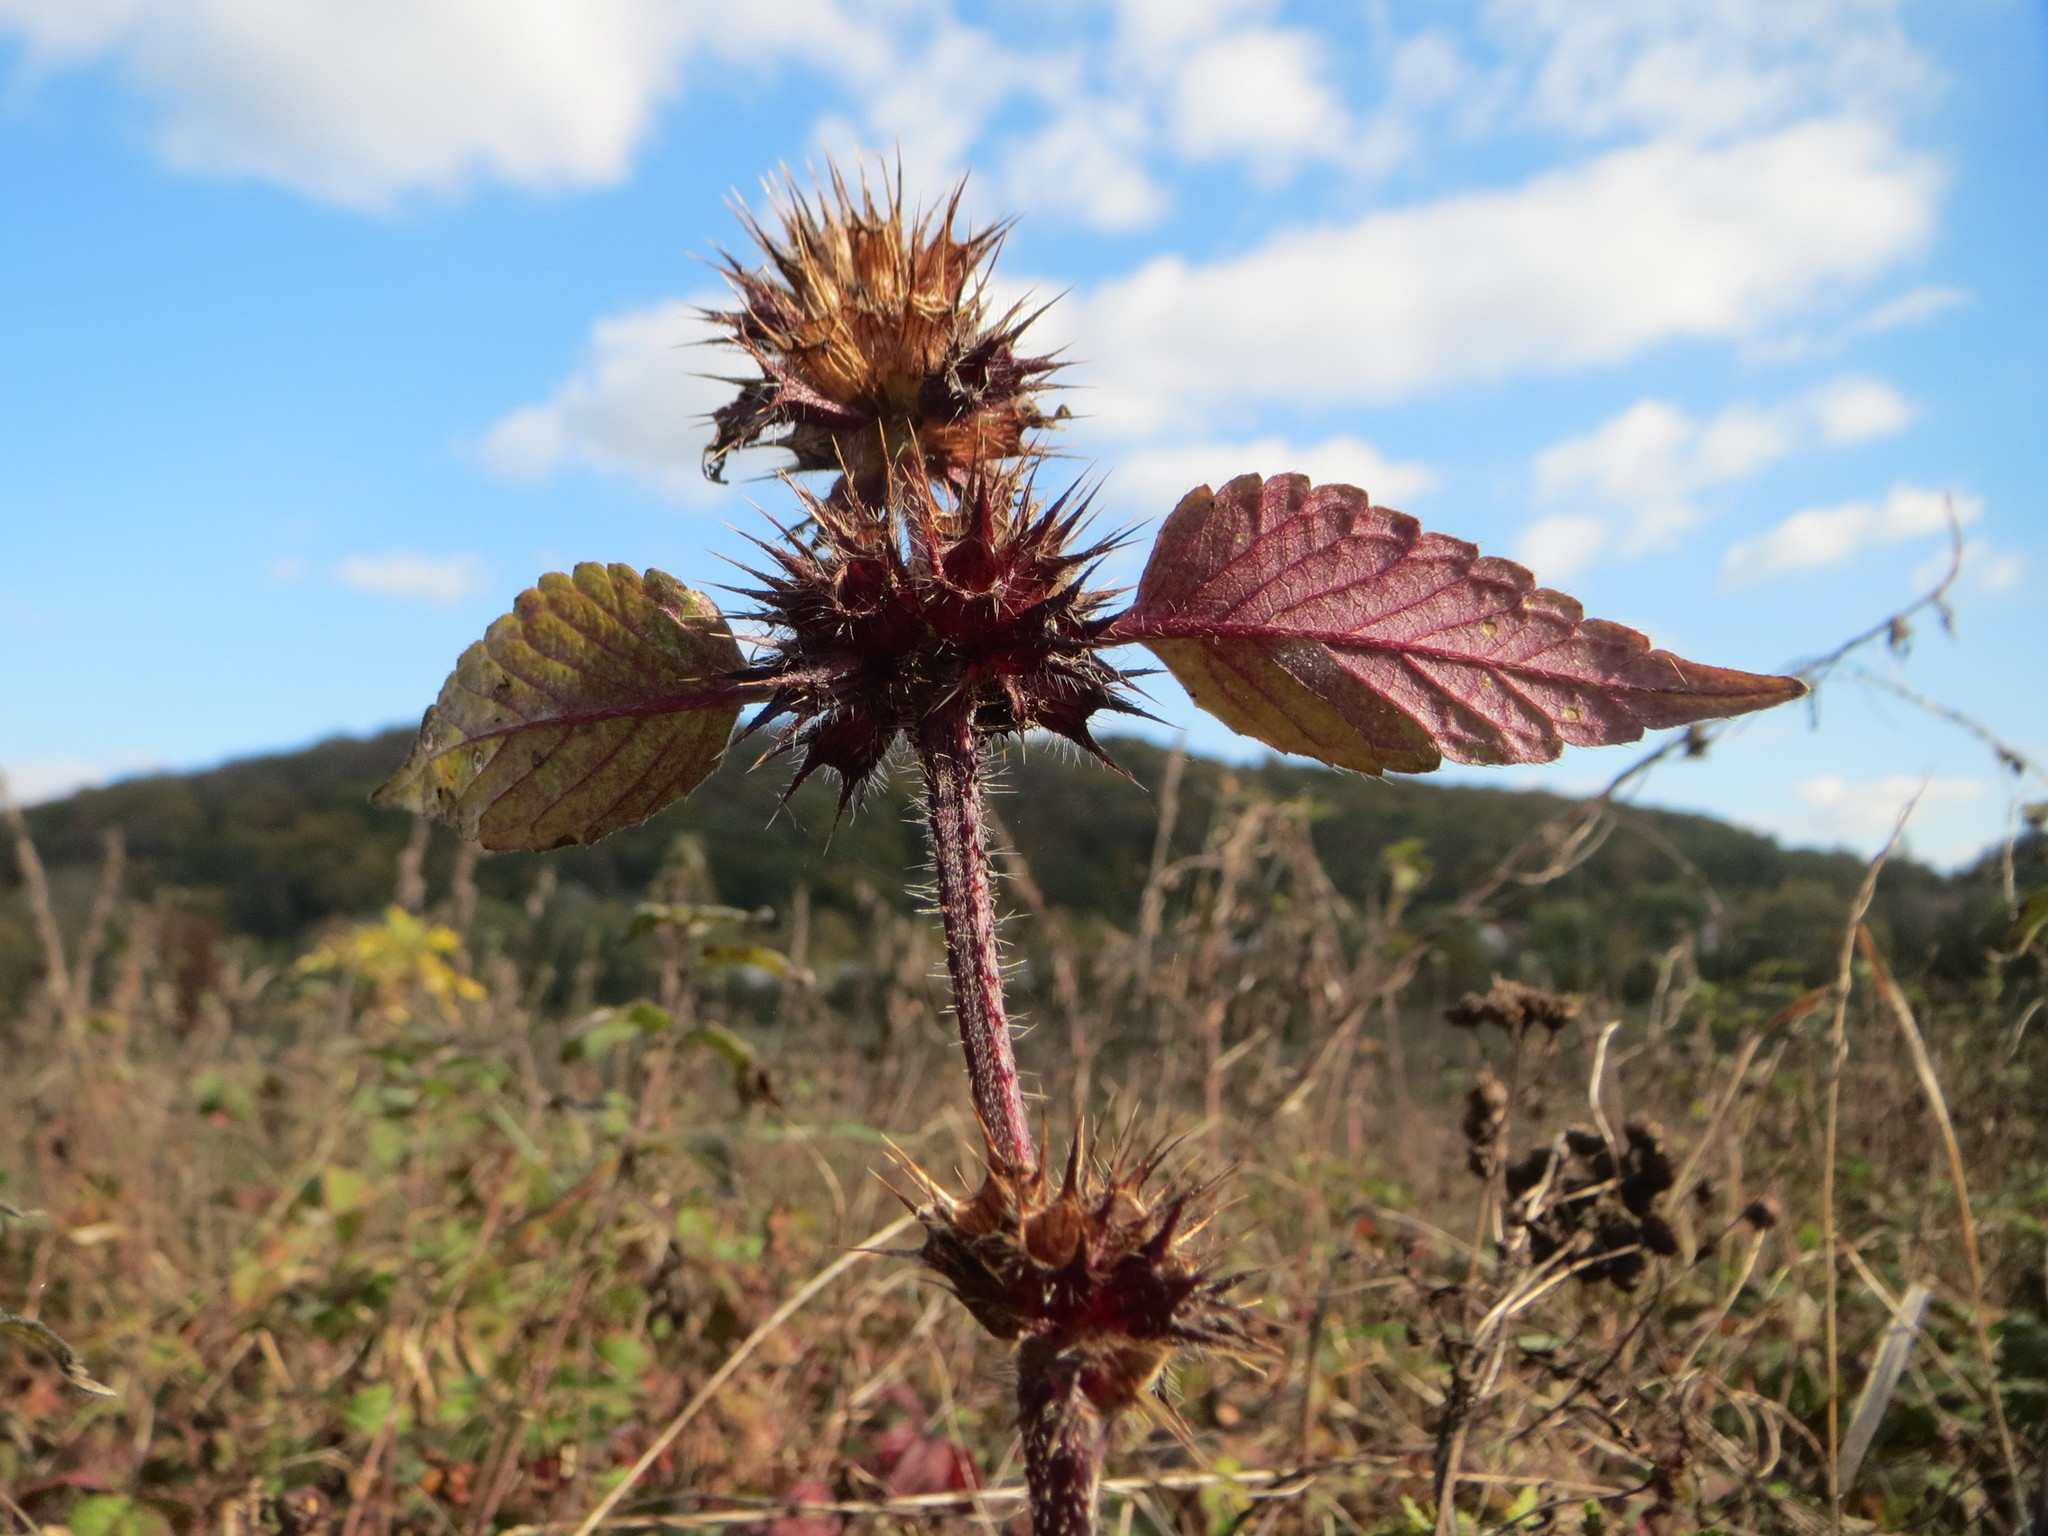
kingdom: Plantae
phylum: Tracheophyta
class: Magnoliopsida
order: Lamiales
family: Lamiaceae
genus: Galeopsis
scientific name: Galeopsis tetrahit
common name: Common hemp-nettle
